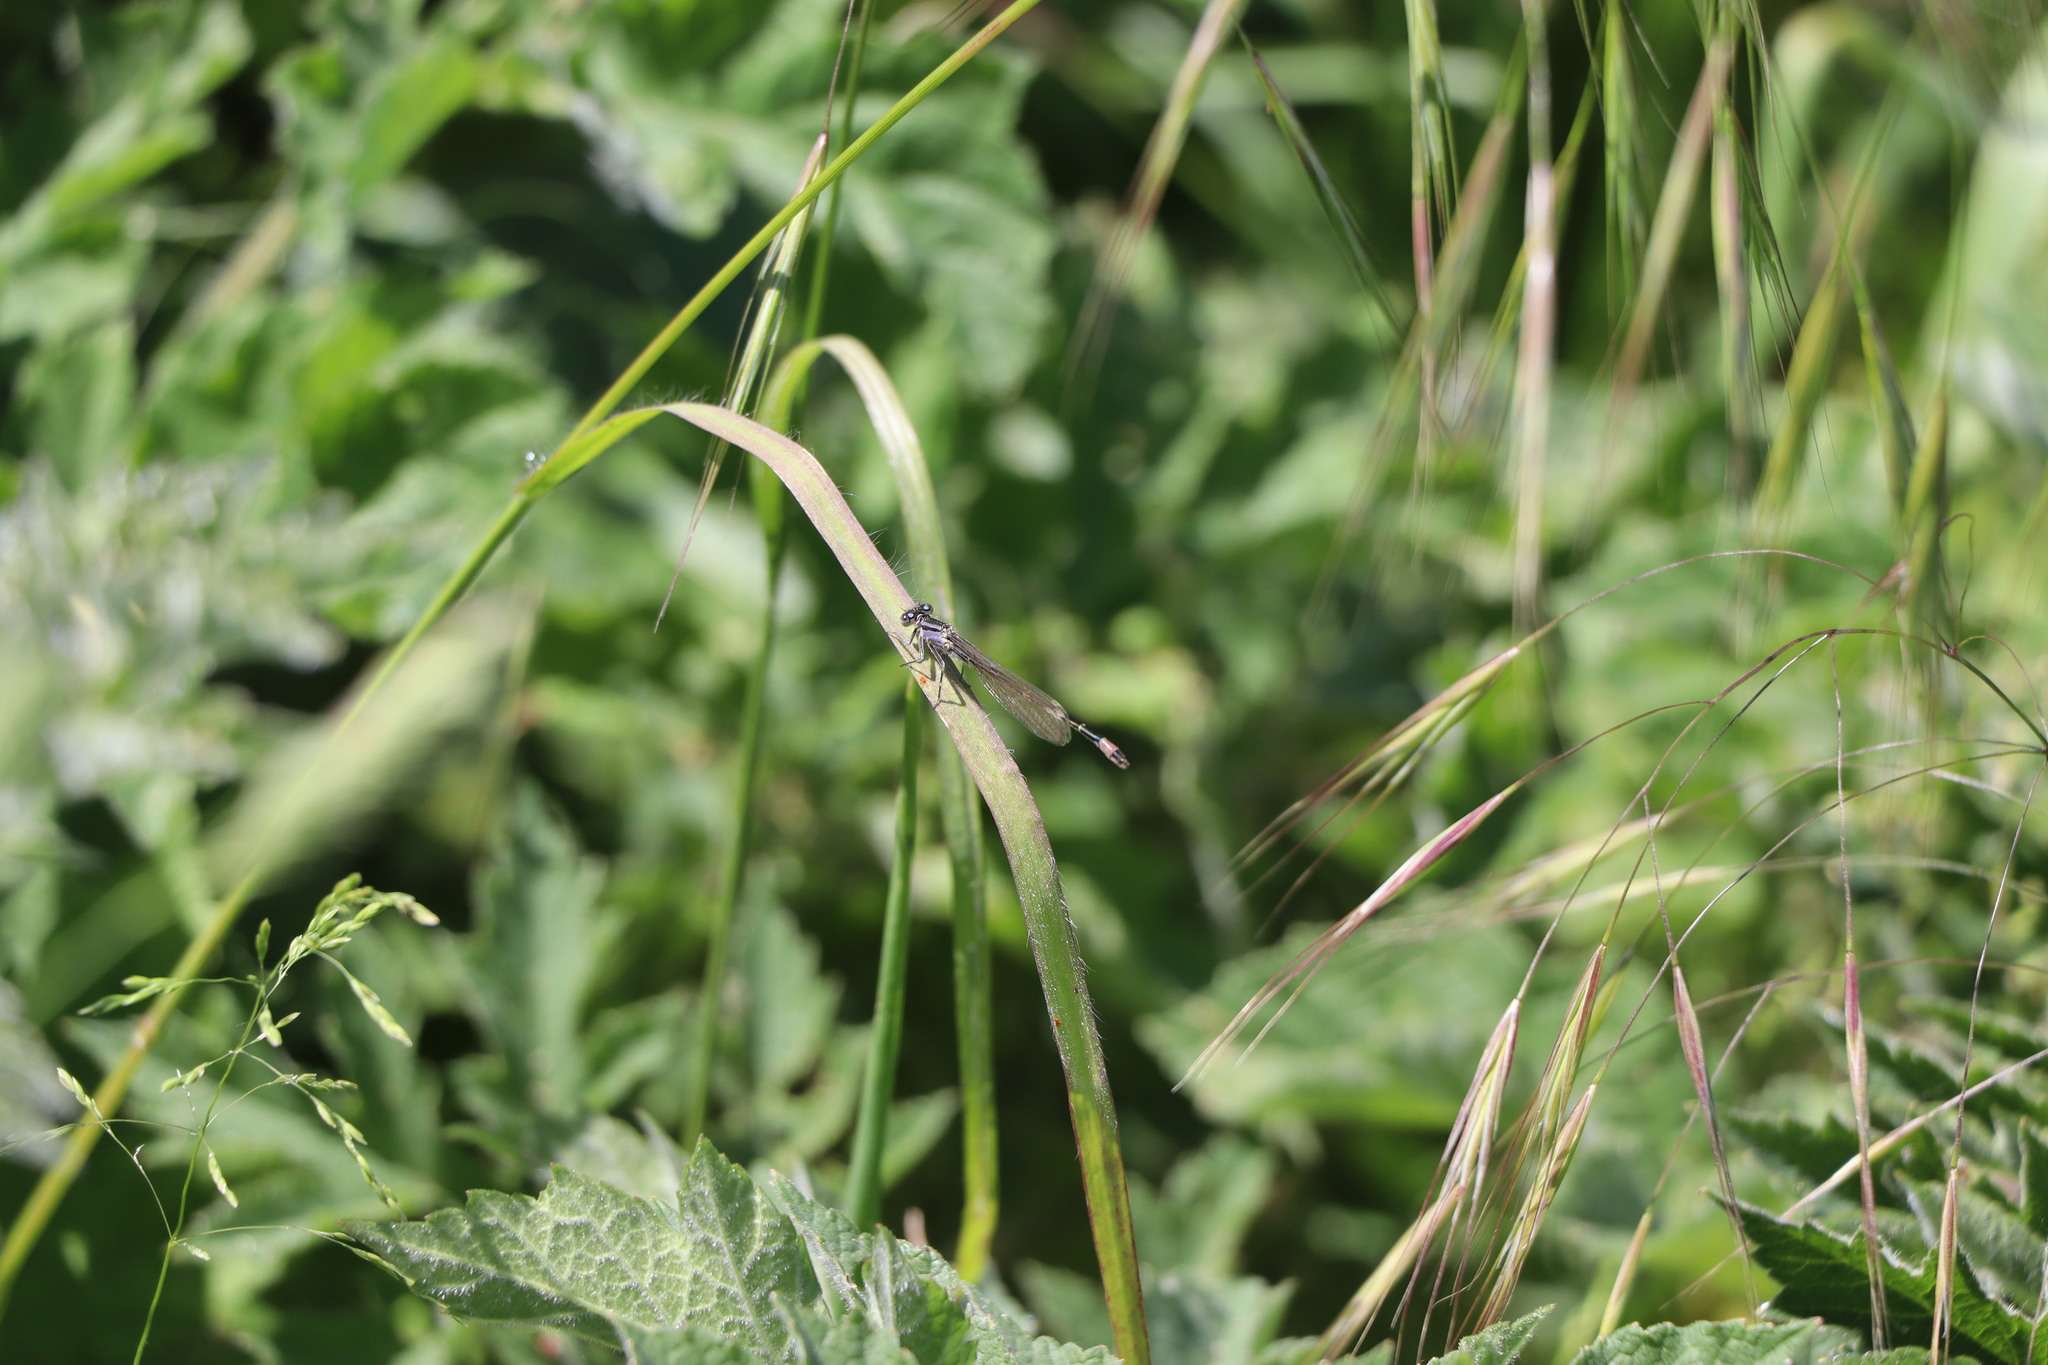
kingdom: Animalia
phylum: Arthropoda
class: Insecta
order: Odonata
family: Coenagrionidae
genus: Ischnura
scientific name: Ischnura elegans
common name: Blue-tailed damselfly
